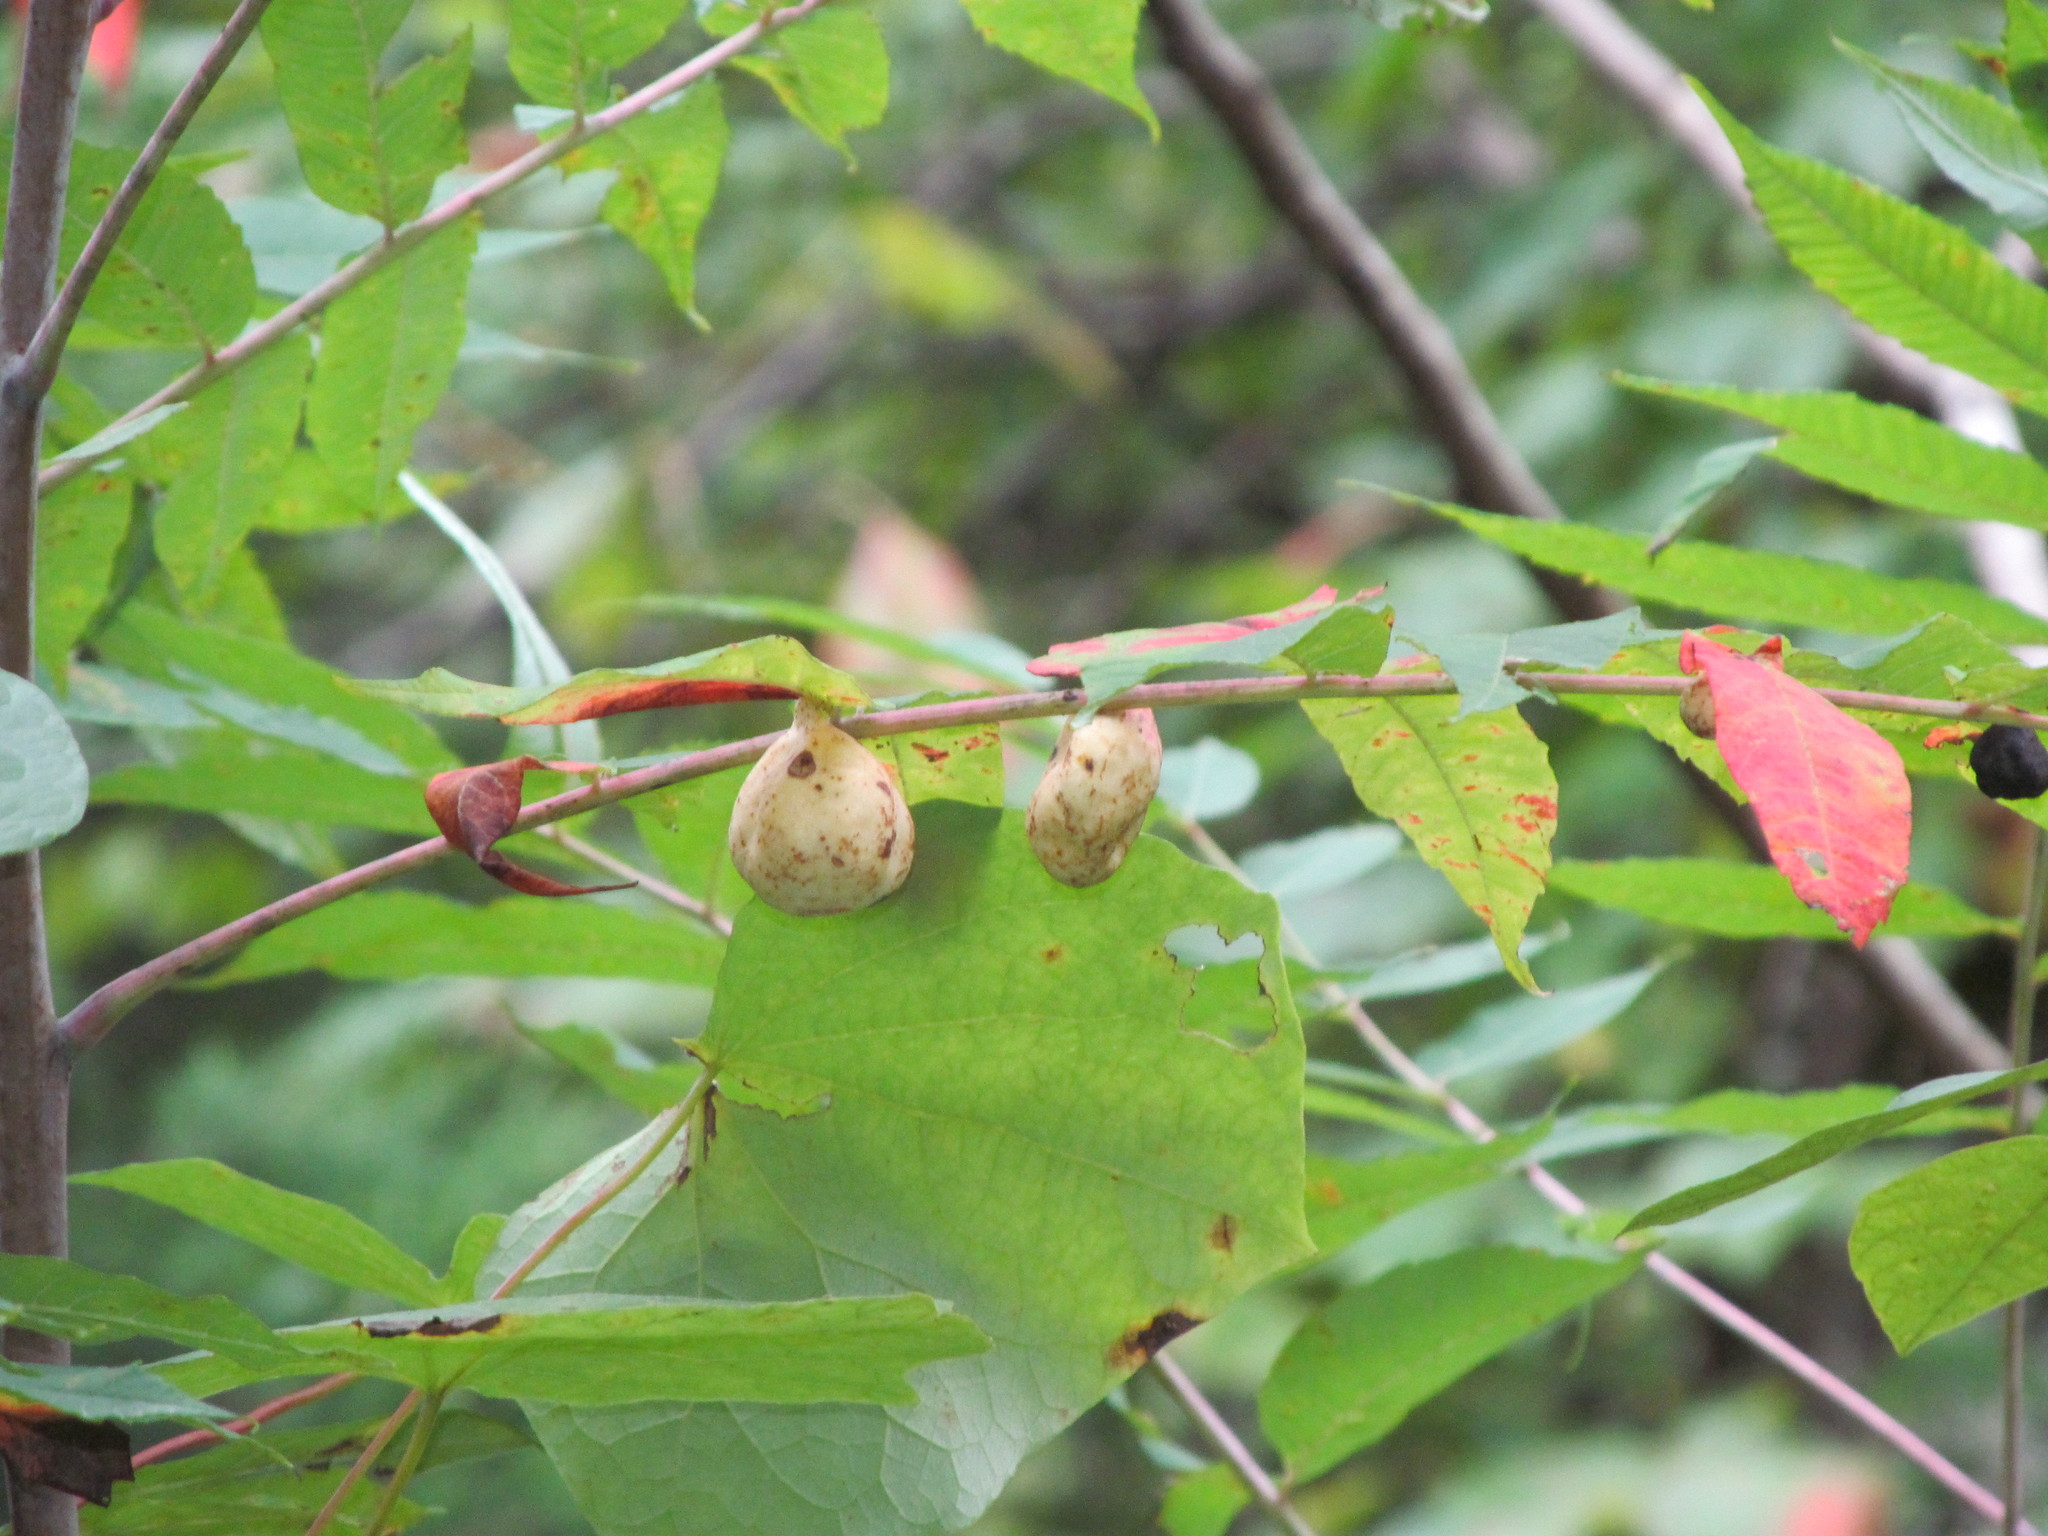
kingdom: Animalia
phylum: Arthropoda
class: Insecta
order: Hemiptera
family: Aphididae
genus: Melaphis
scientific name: Melaphis rhois
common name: Sumac gall aphid
